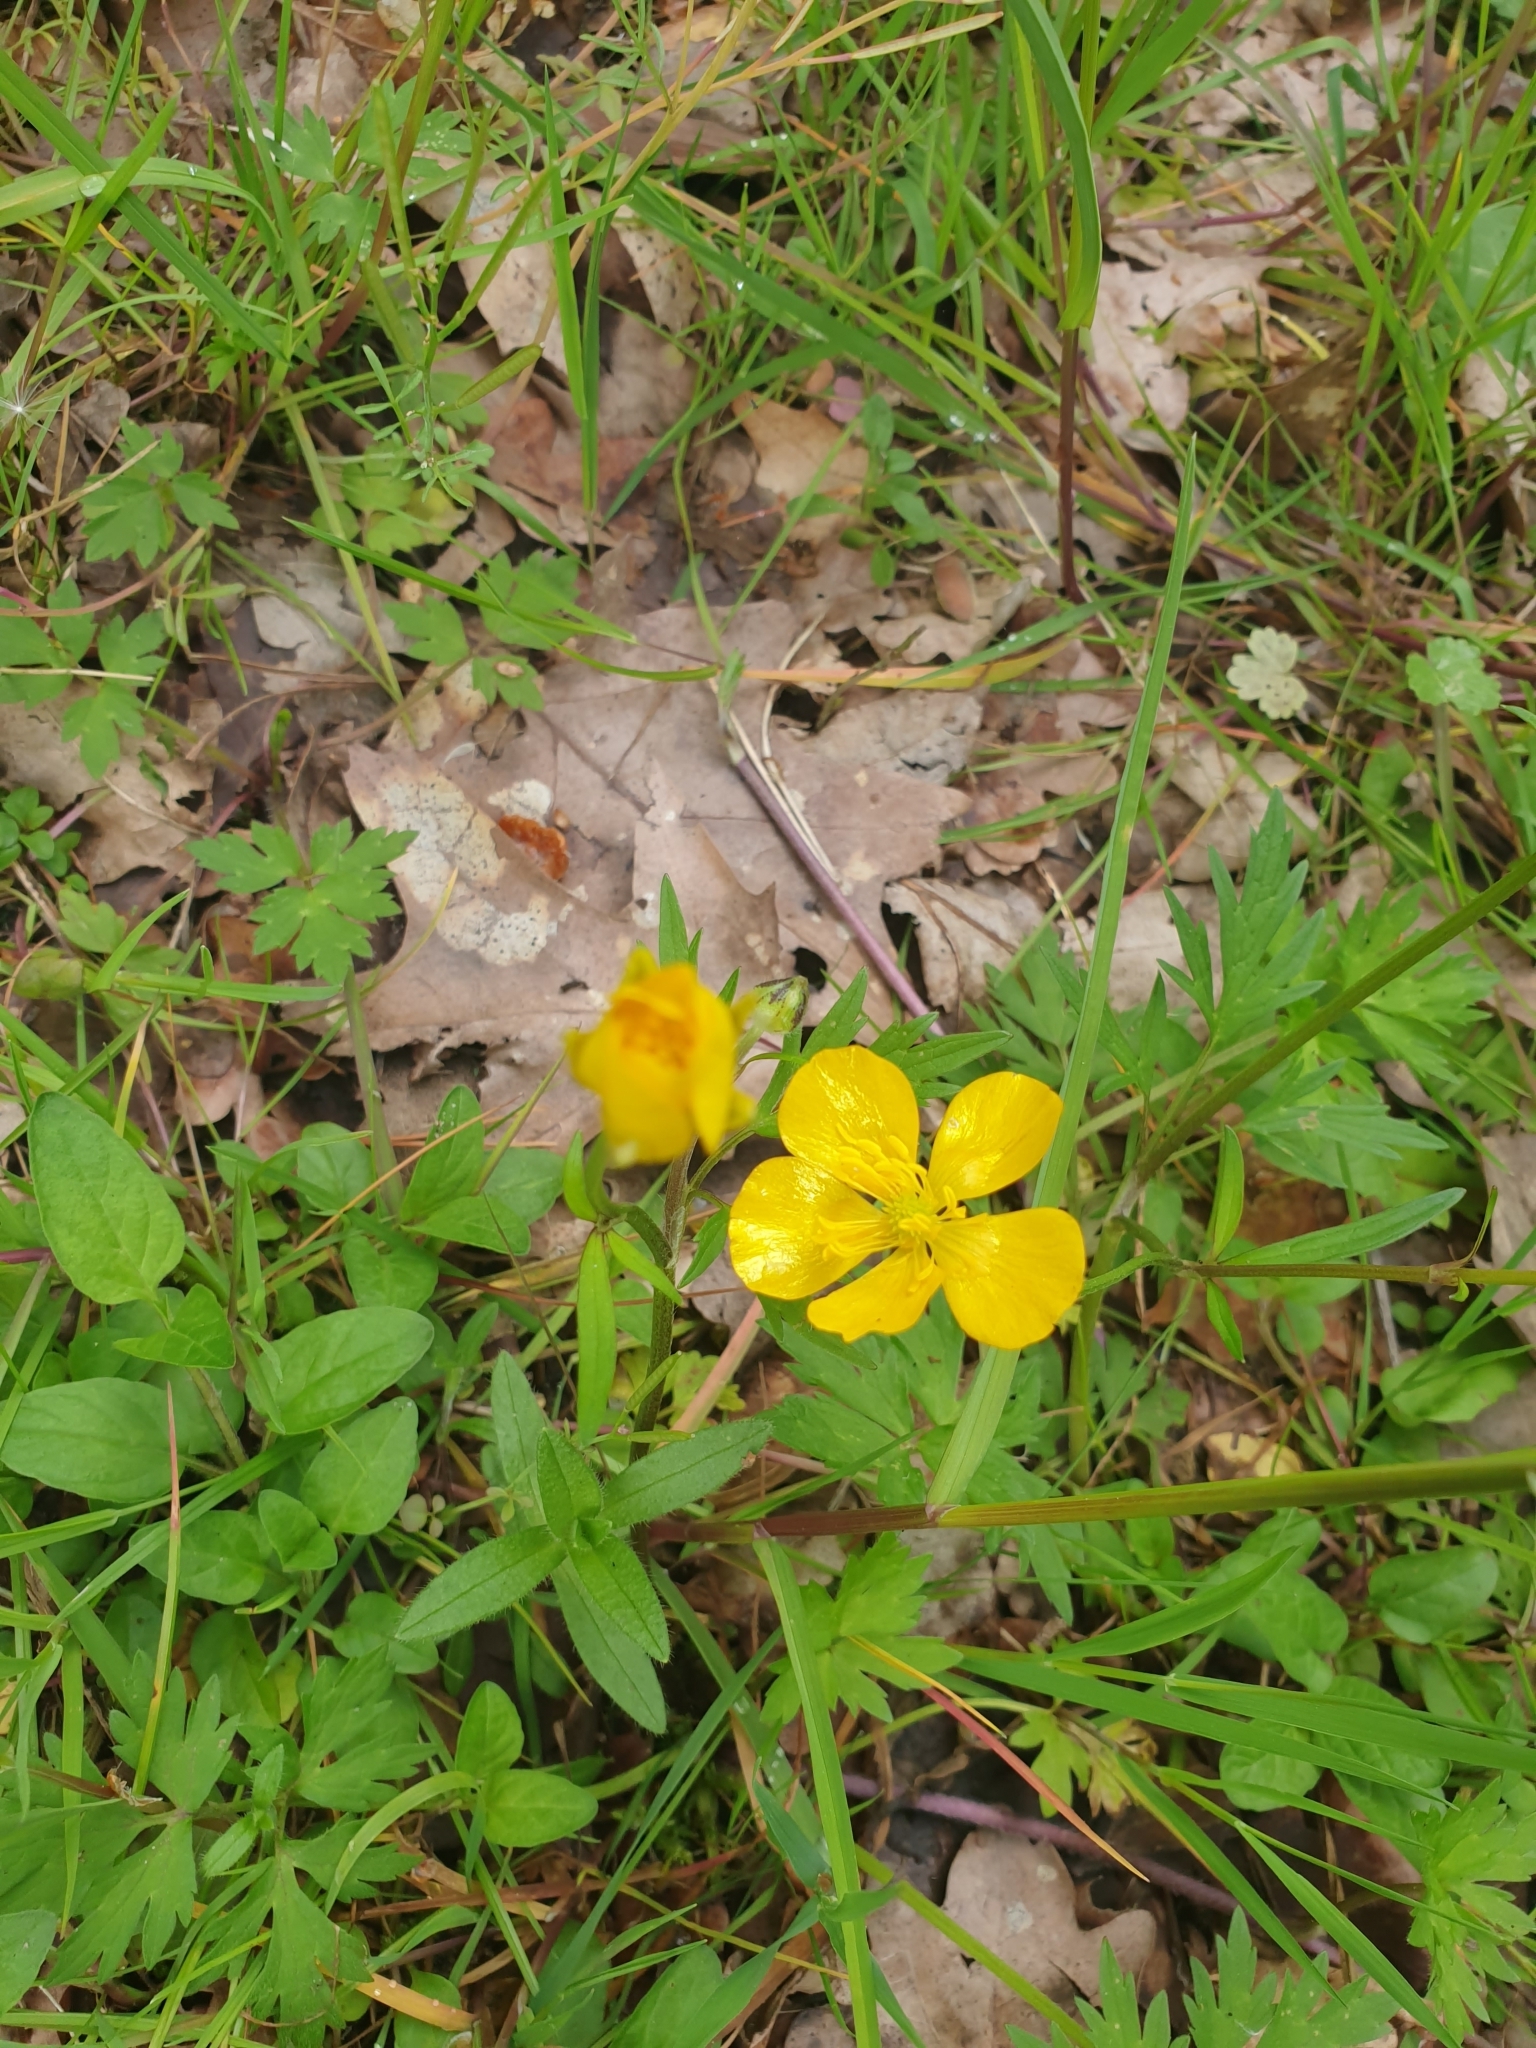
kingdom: Plantae
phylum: Tracheophyta
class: Magnoliopsida
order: Ranunculales
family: Ranunculaceae
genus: Ranunculus
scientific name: Ranunculus repens
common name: Creeping buttercup
